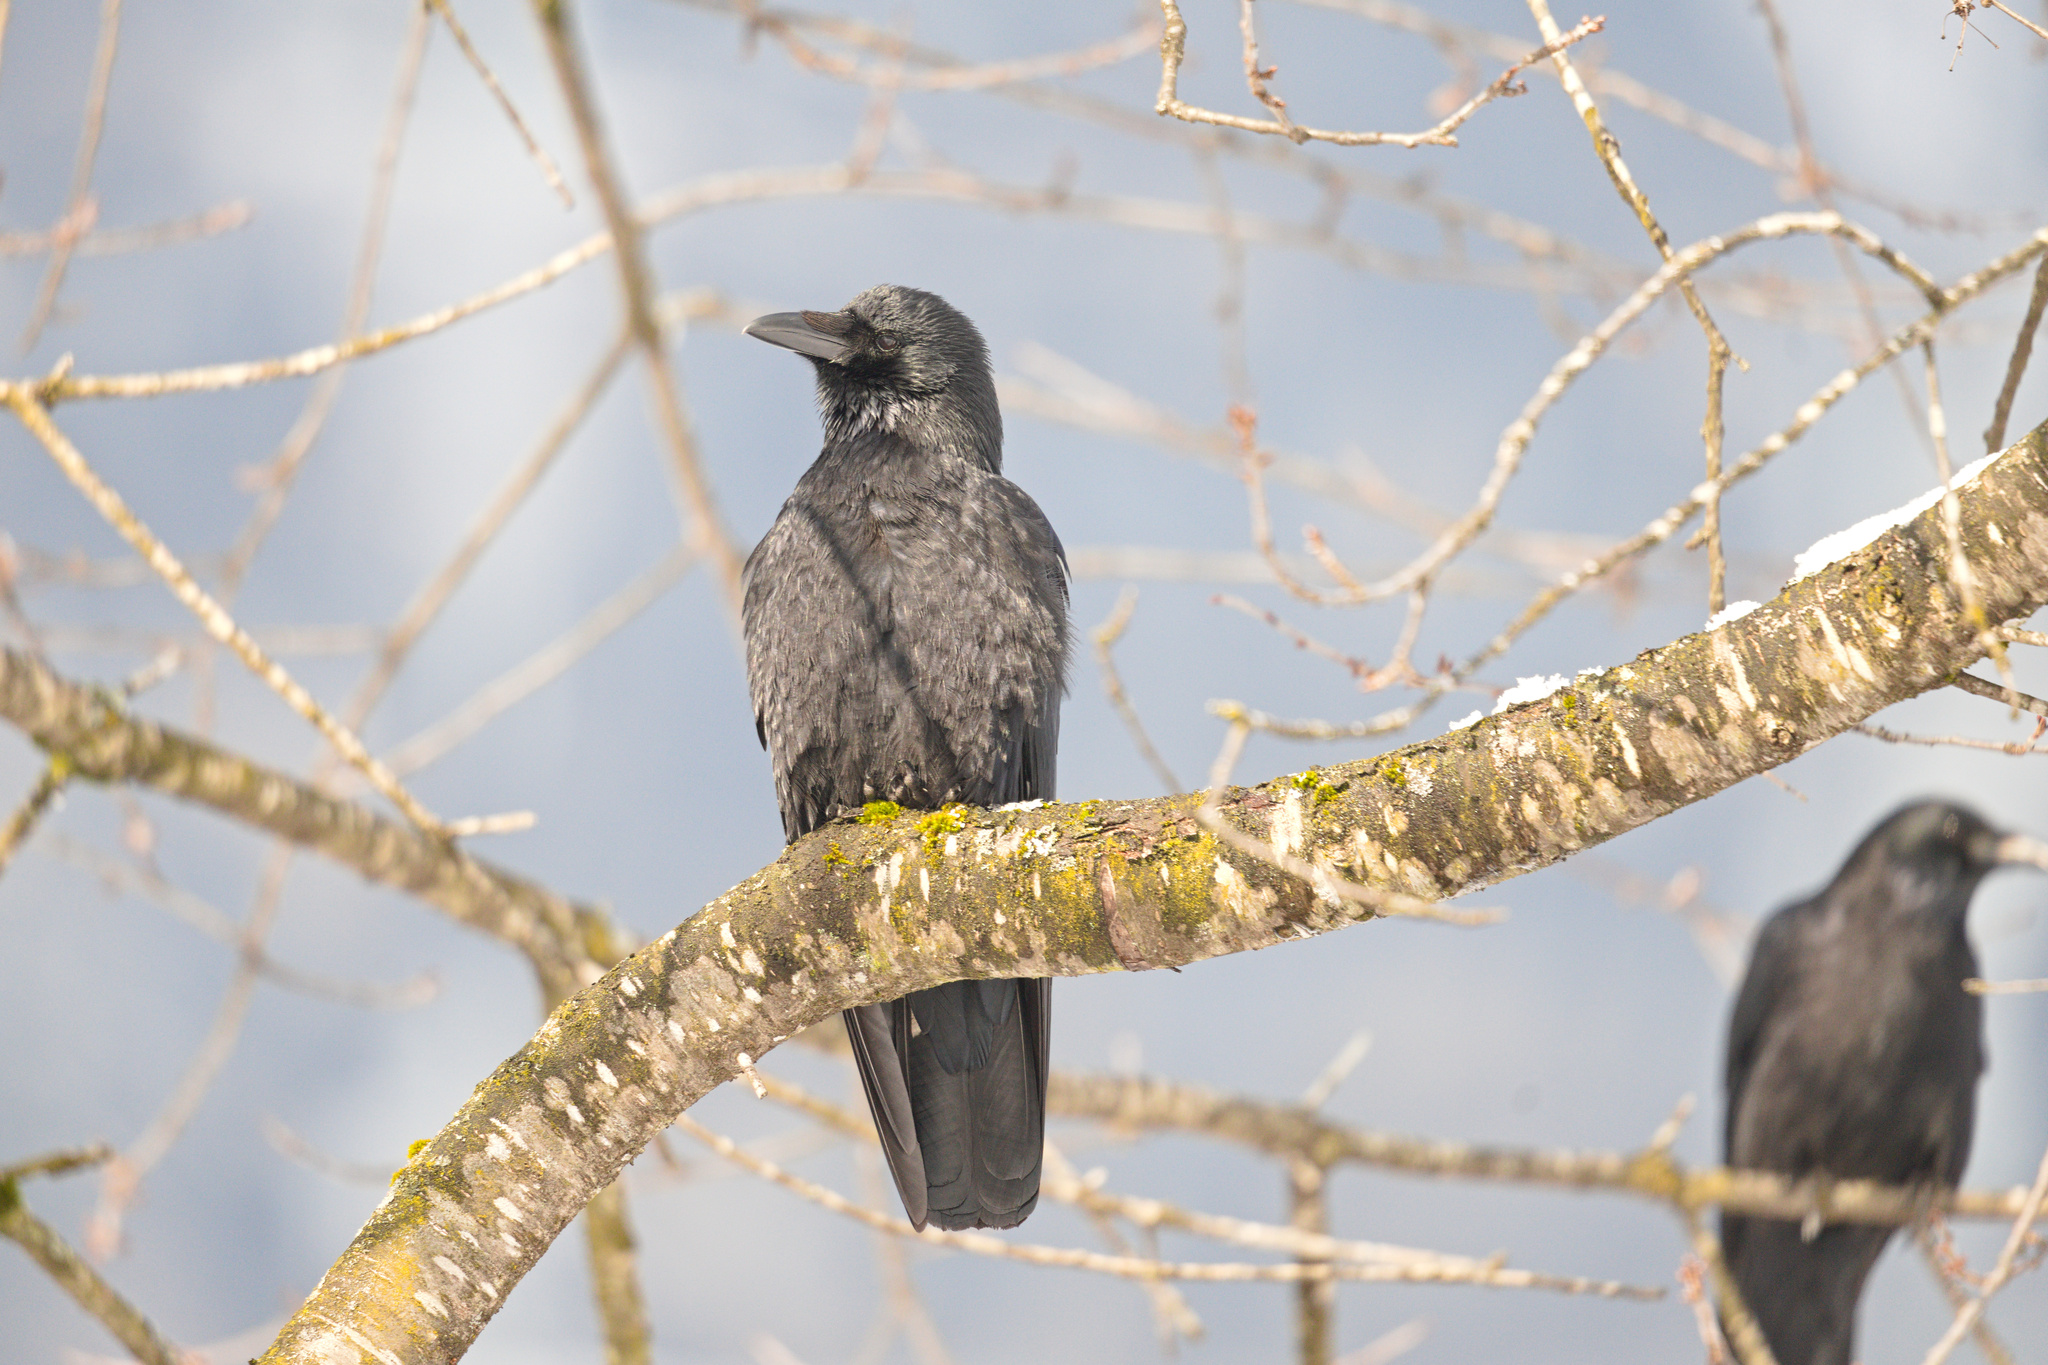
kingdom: Animalia
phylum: Chordata
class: Aves
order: Passeriformes
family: Corvidae
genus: Corvus
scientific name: Corvus corone
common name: Carrion crow
